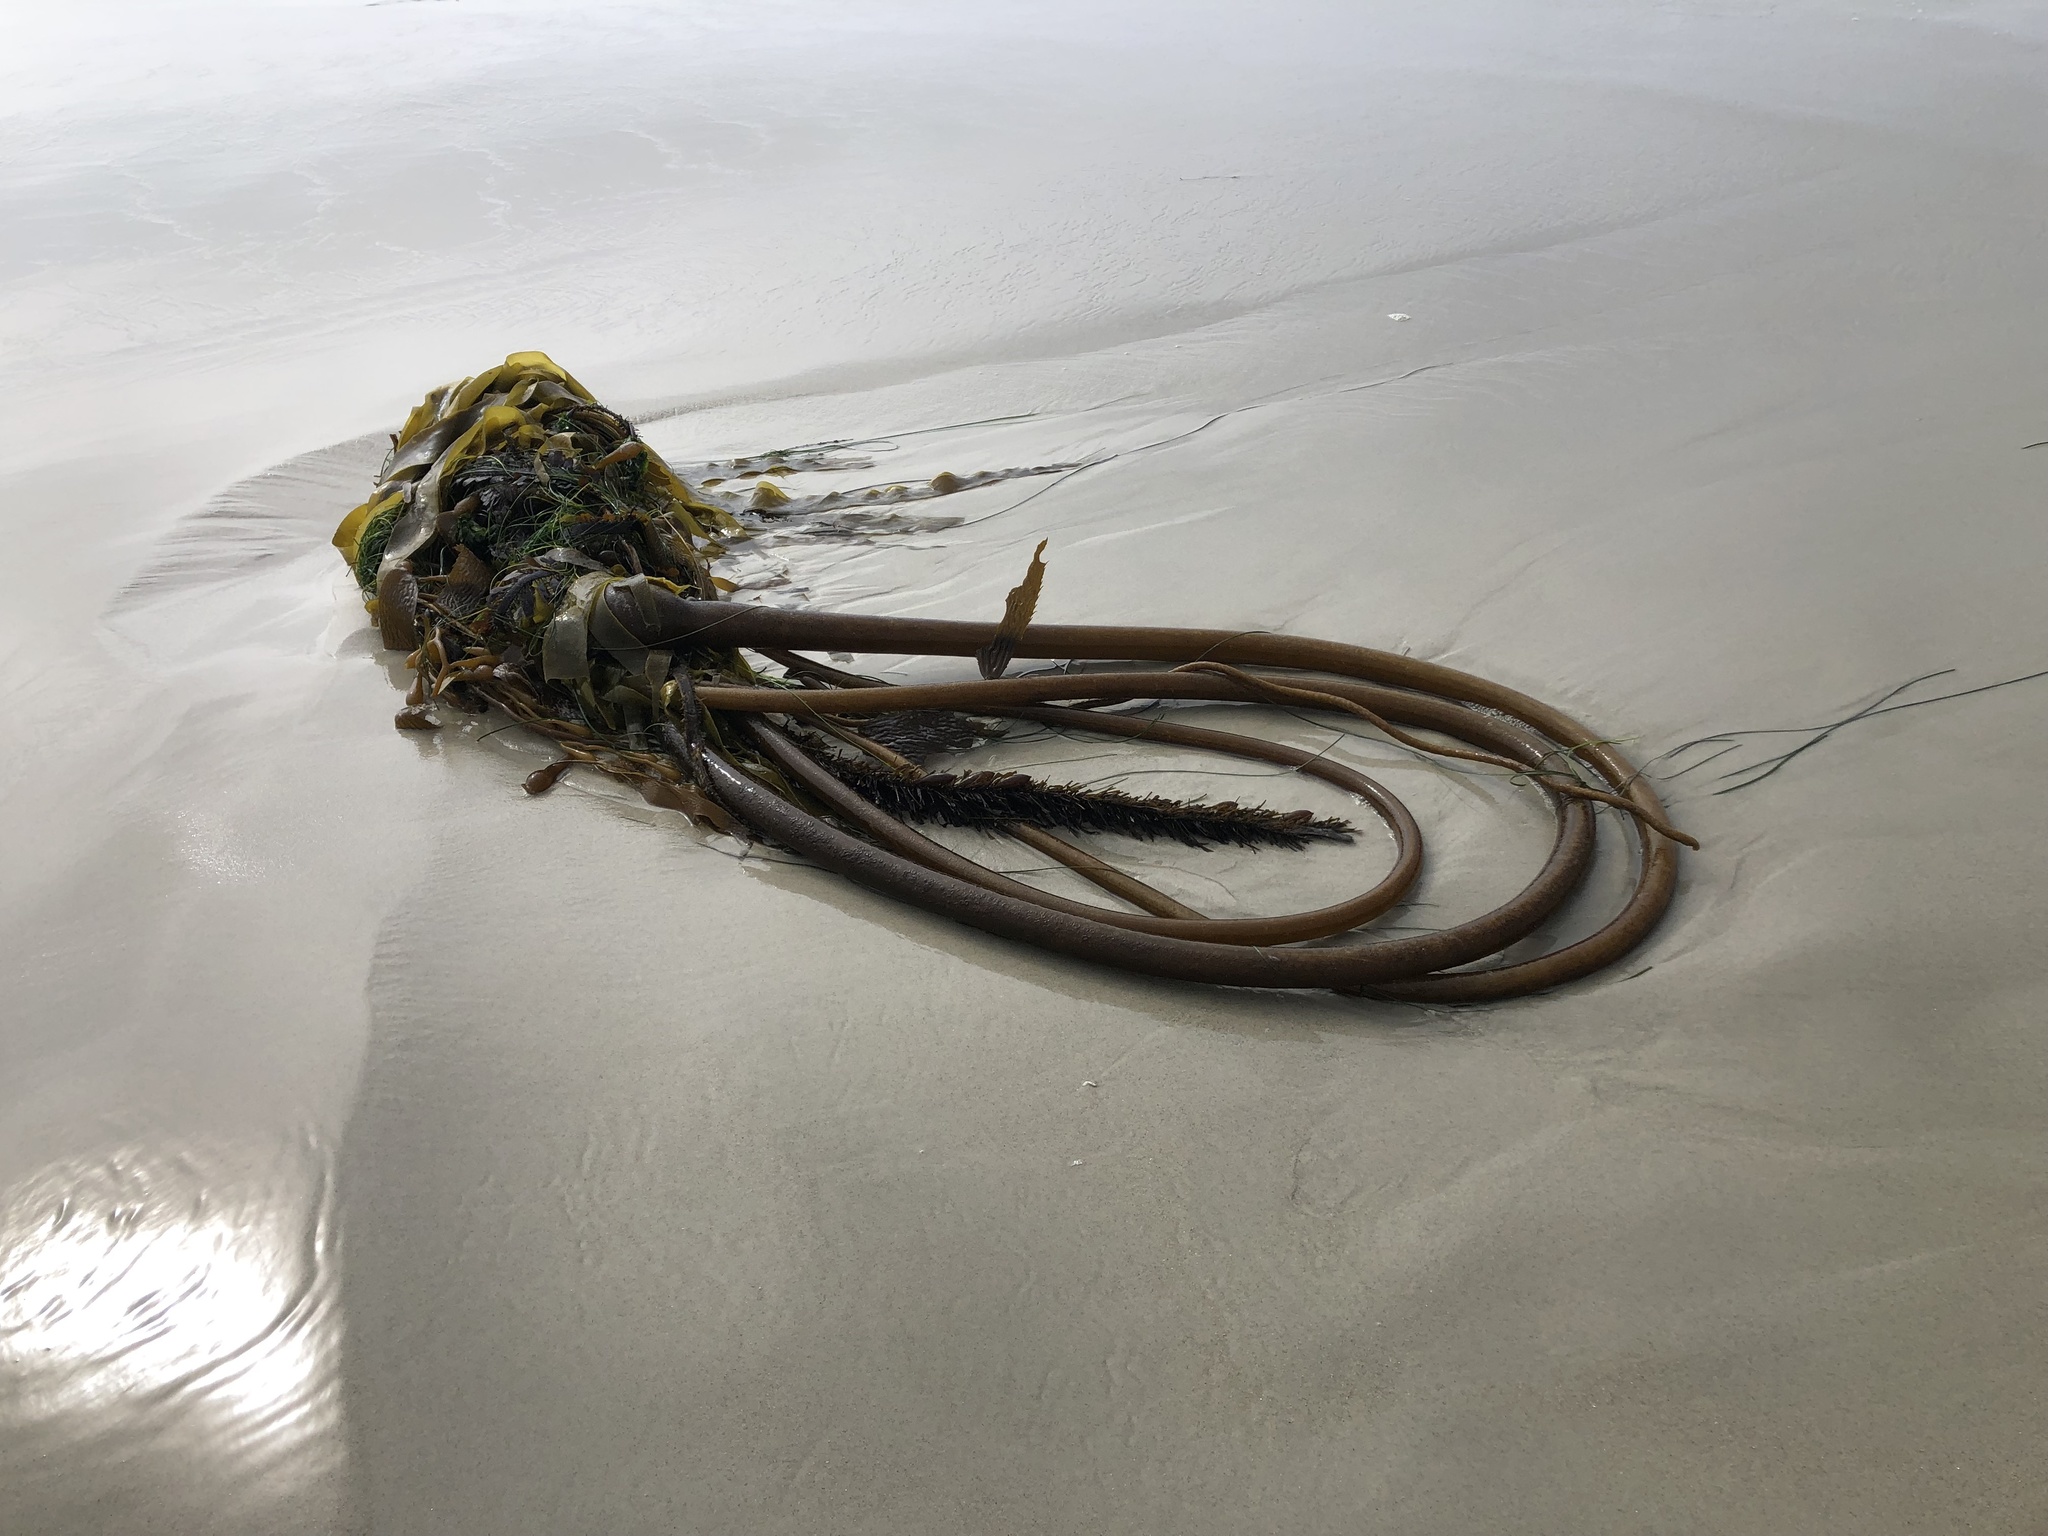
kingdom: Chromista
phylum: Ochrophyta
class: Phaeophyceae
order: Laminariales
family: Laminariaceae
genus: Nereocystis
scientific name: Nereocystis luetkeana
